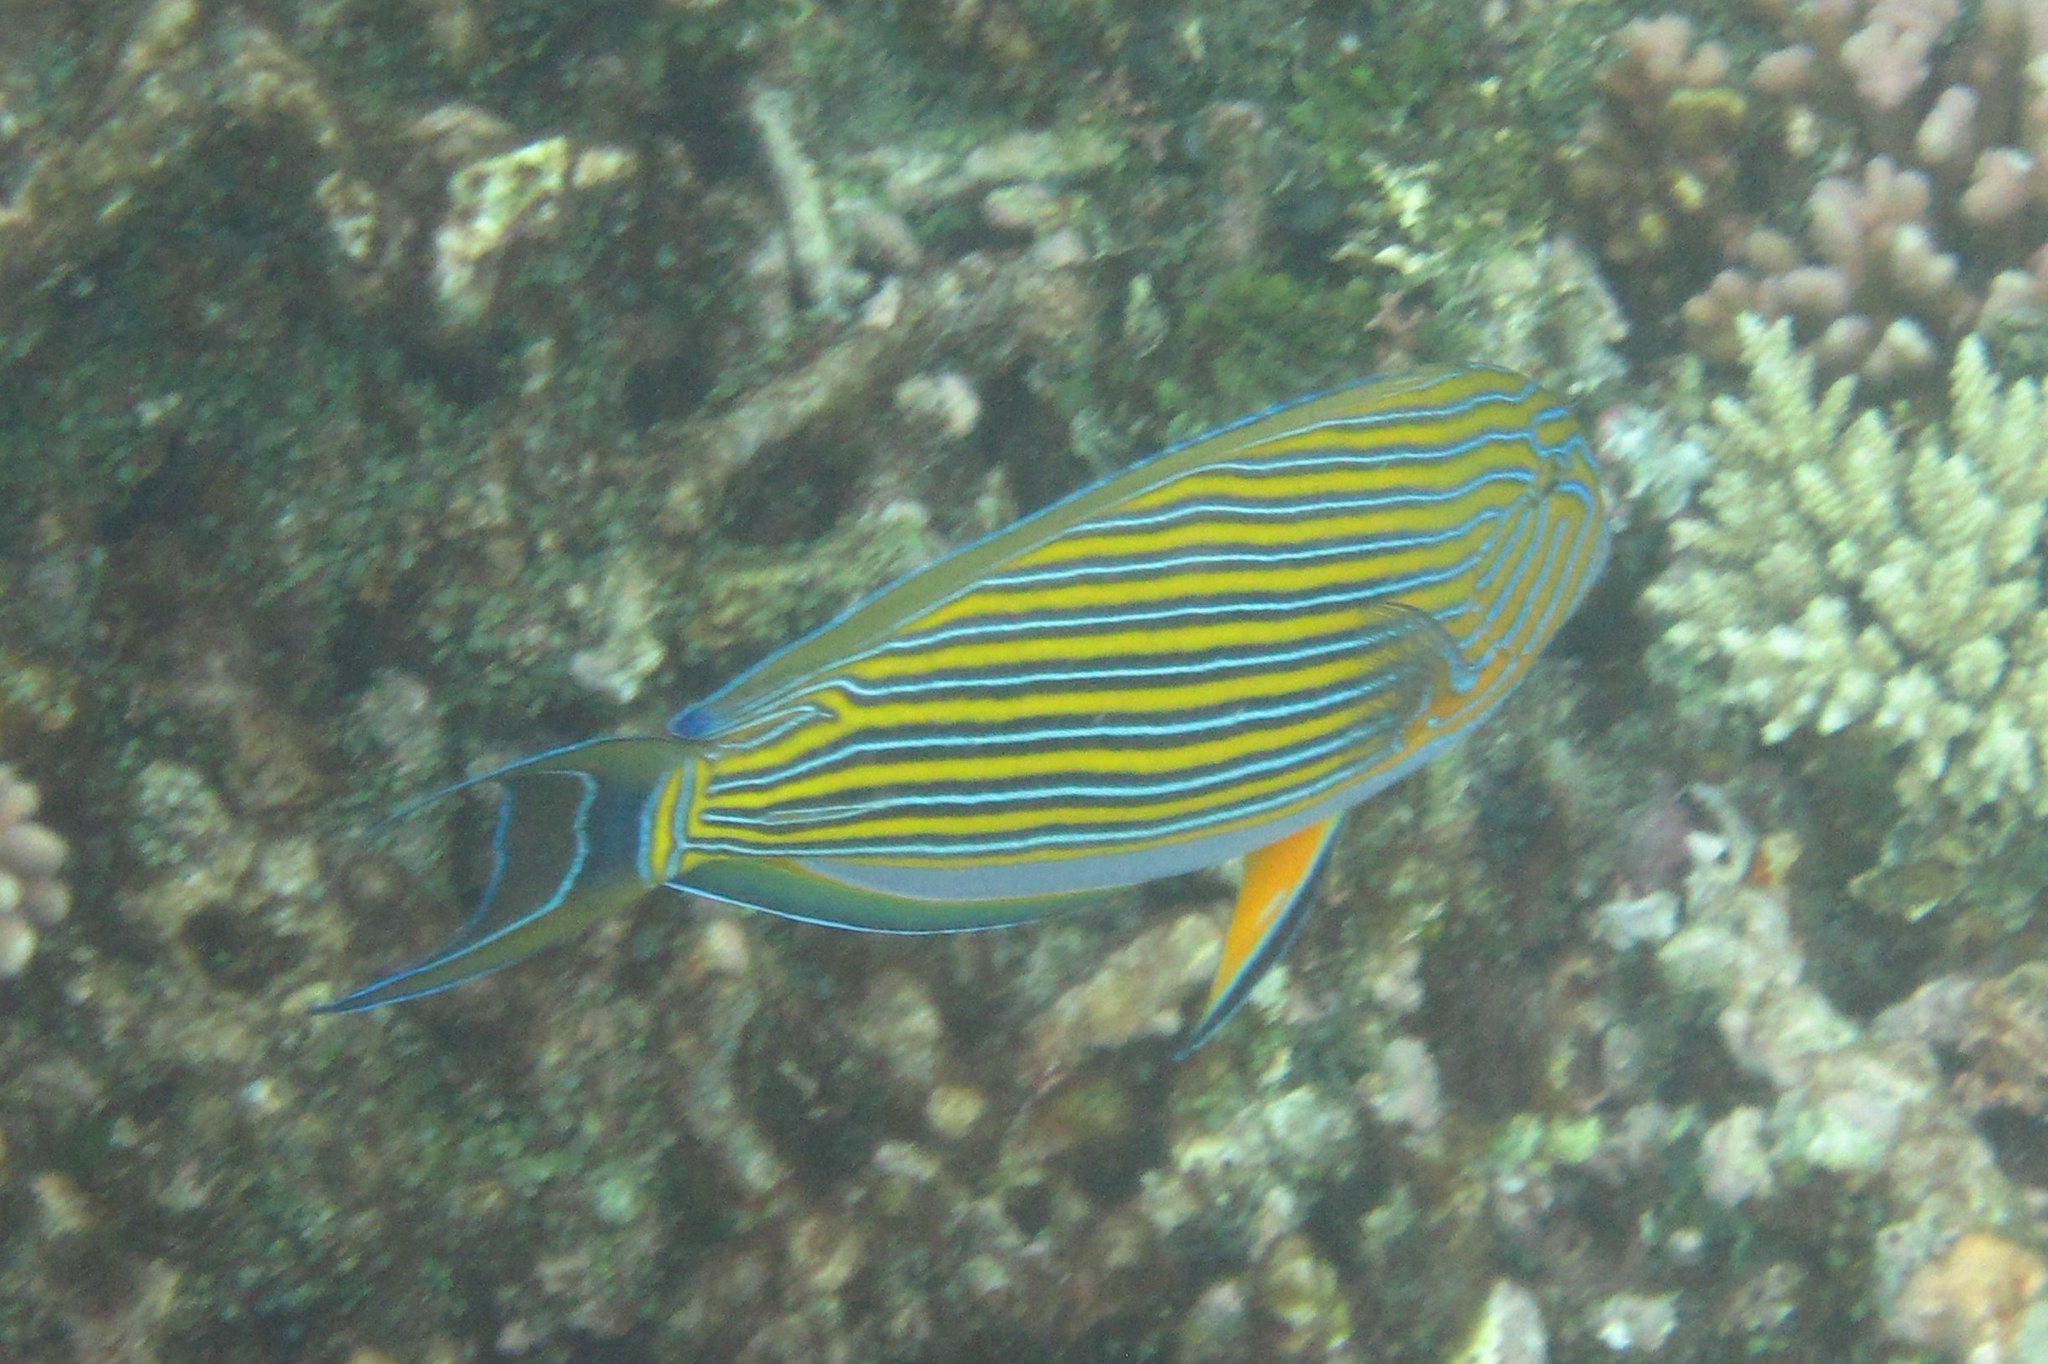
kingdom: Animalia
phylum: Chordata
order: Perciformes
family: Acanthuridae
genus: Acanthurus
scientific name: Acanthurus lineatus
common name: Striped surgeonfish
